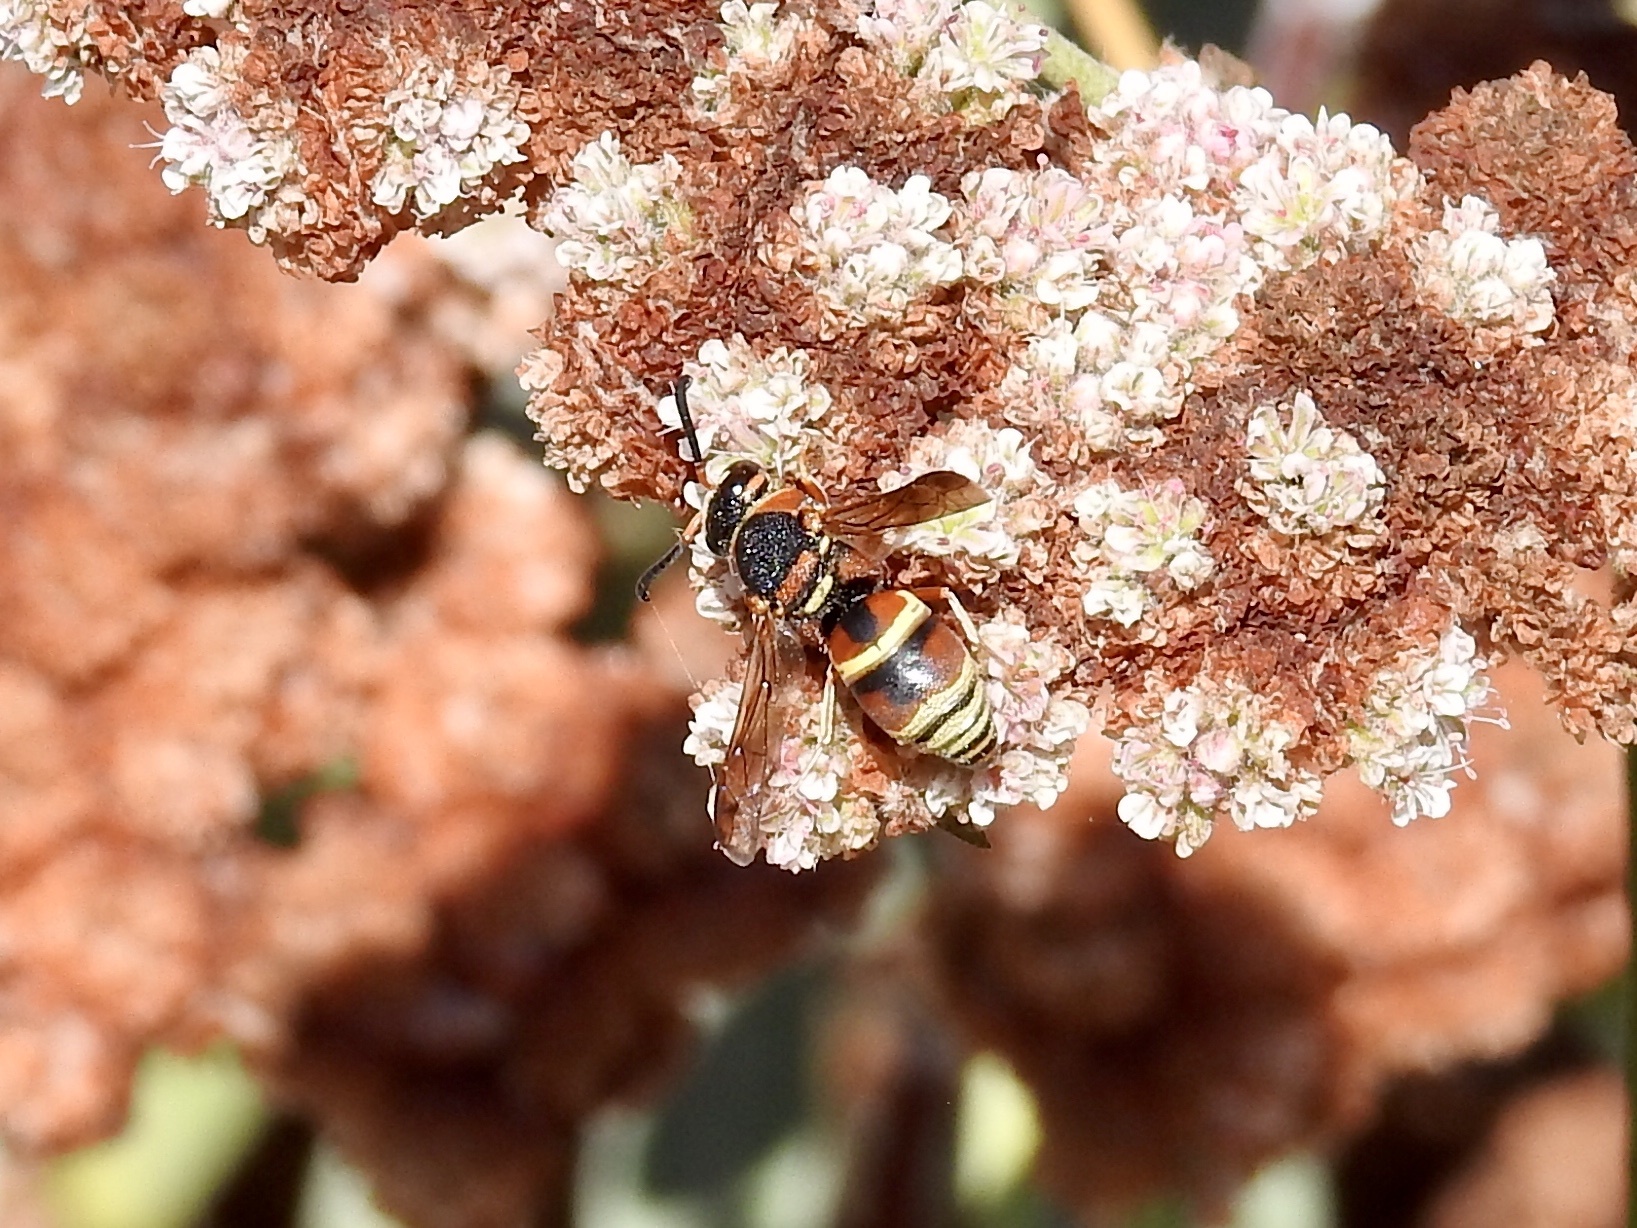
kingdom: Animalia
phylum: Arthropoda
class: Insecta
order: Hymenoptera
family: Eumenidae
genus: Euodynerus
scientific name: Euodynerus hidalgo
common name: Wasp
